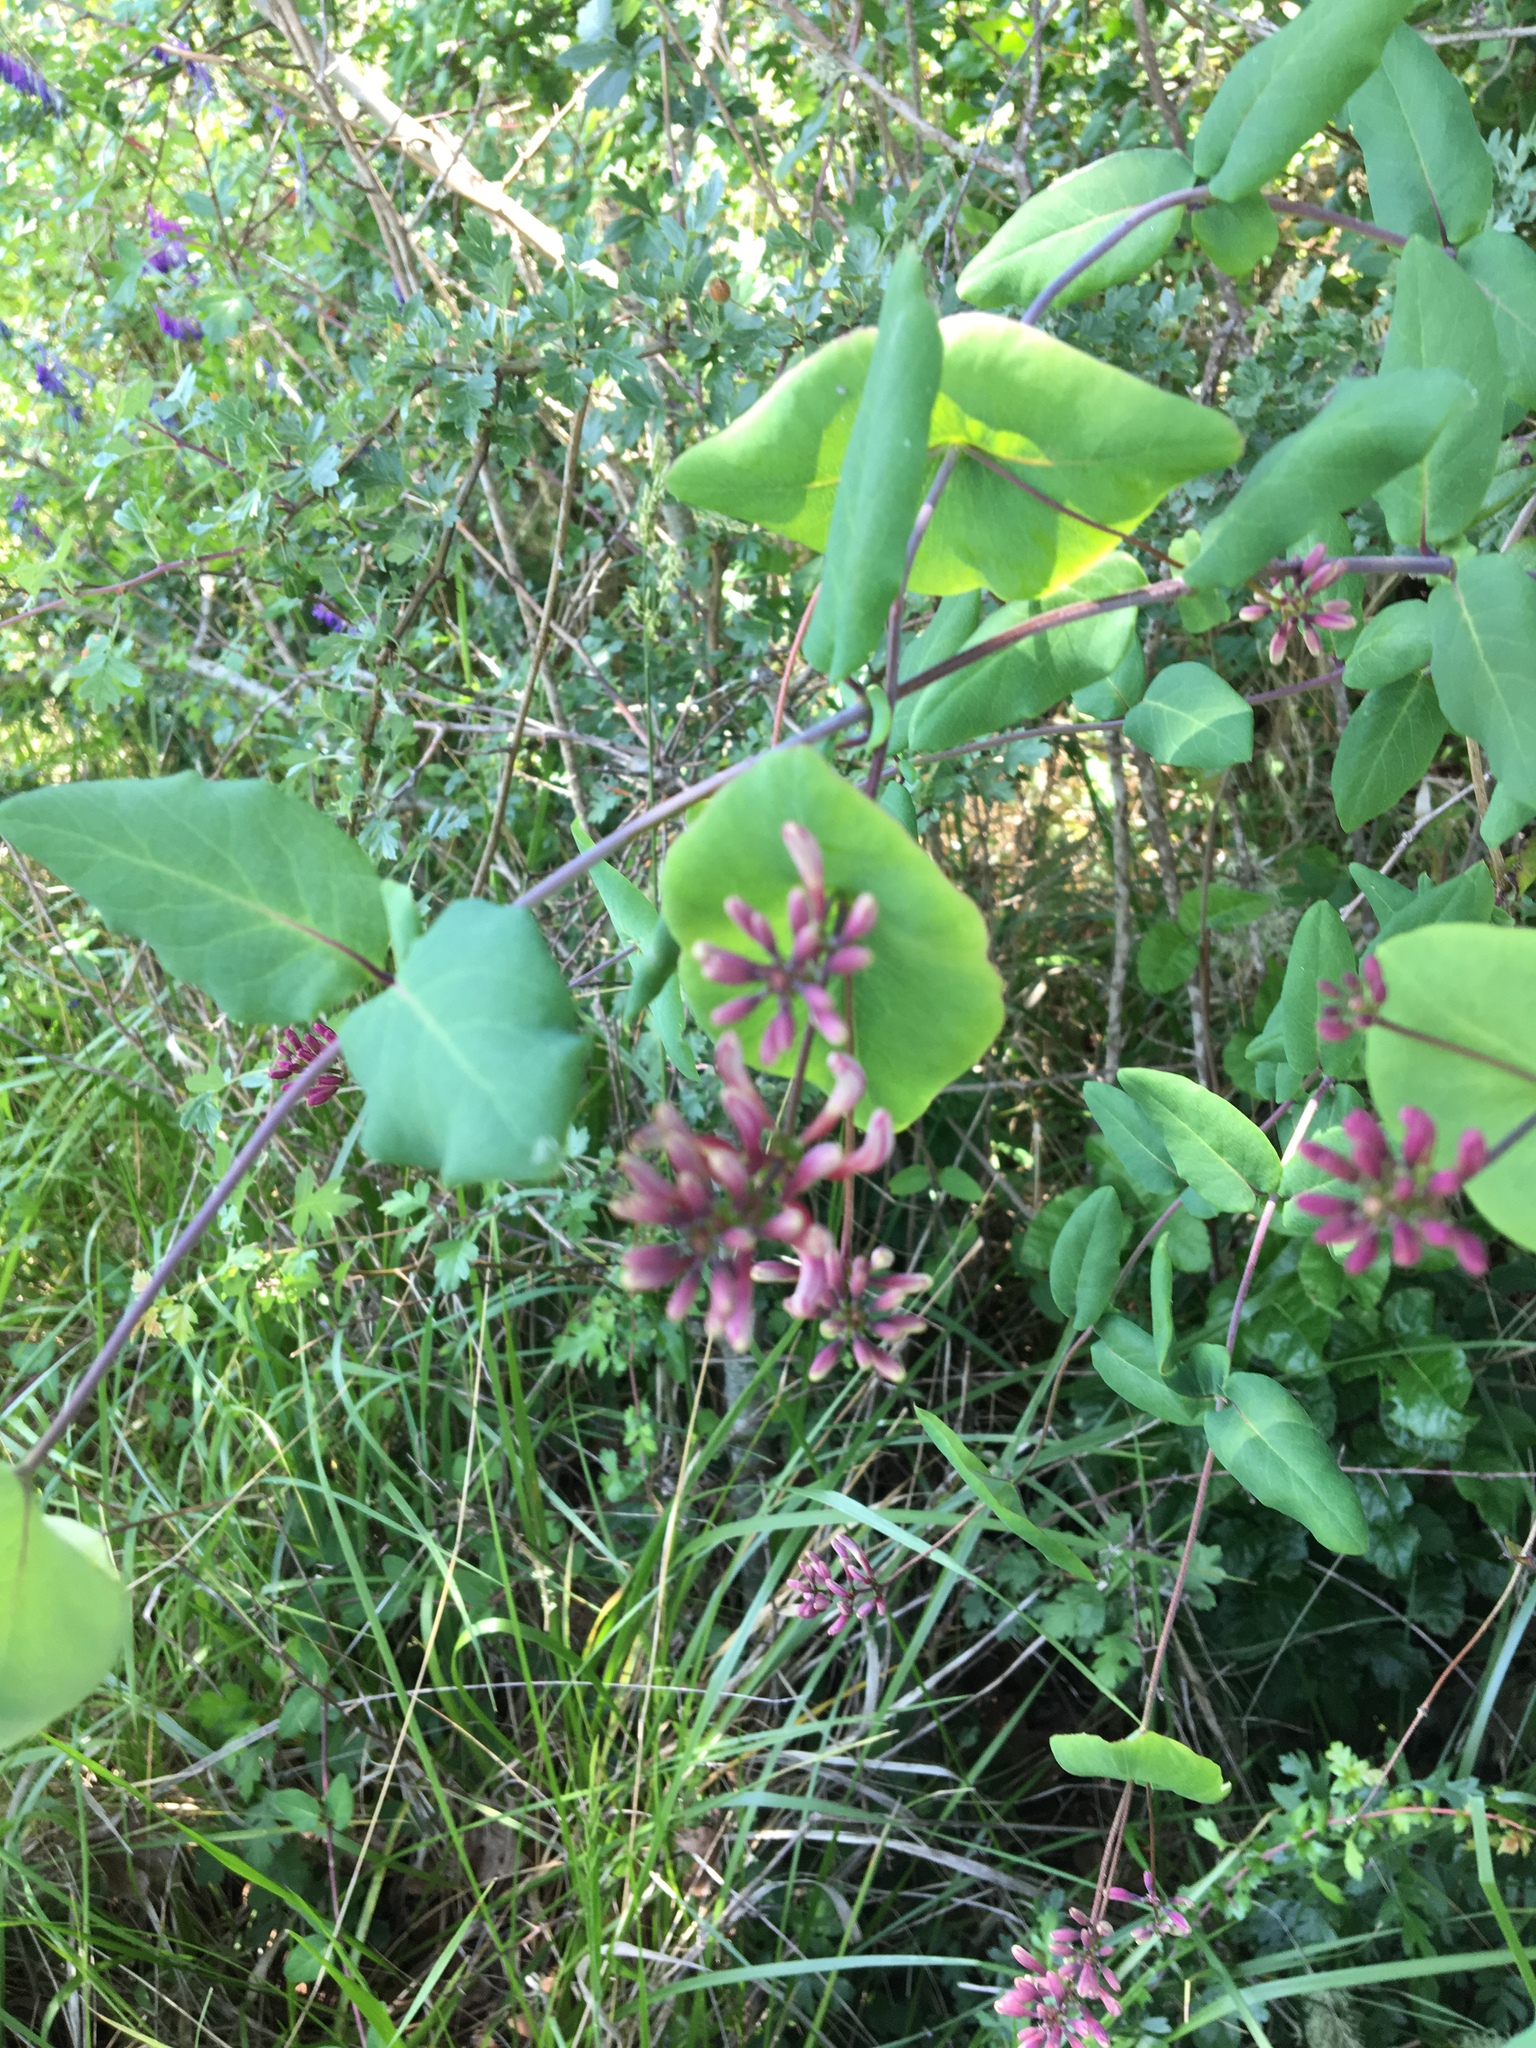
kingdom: Plantae
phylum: Tracheophyta
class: Magnoliopsida
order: Dipsacales
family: Caprifoliaceae
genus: Lonicera
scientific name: Lonicera hispidula
